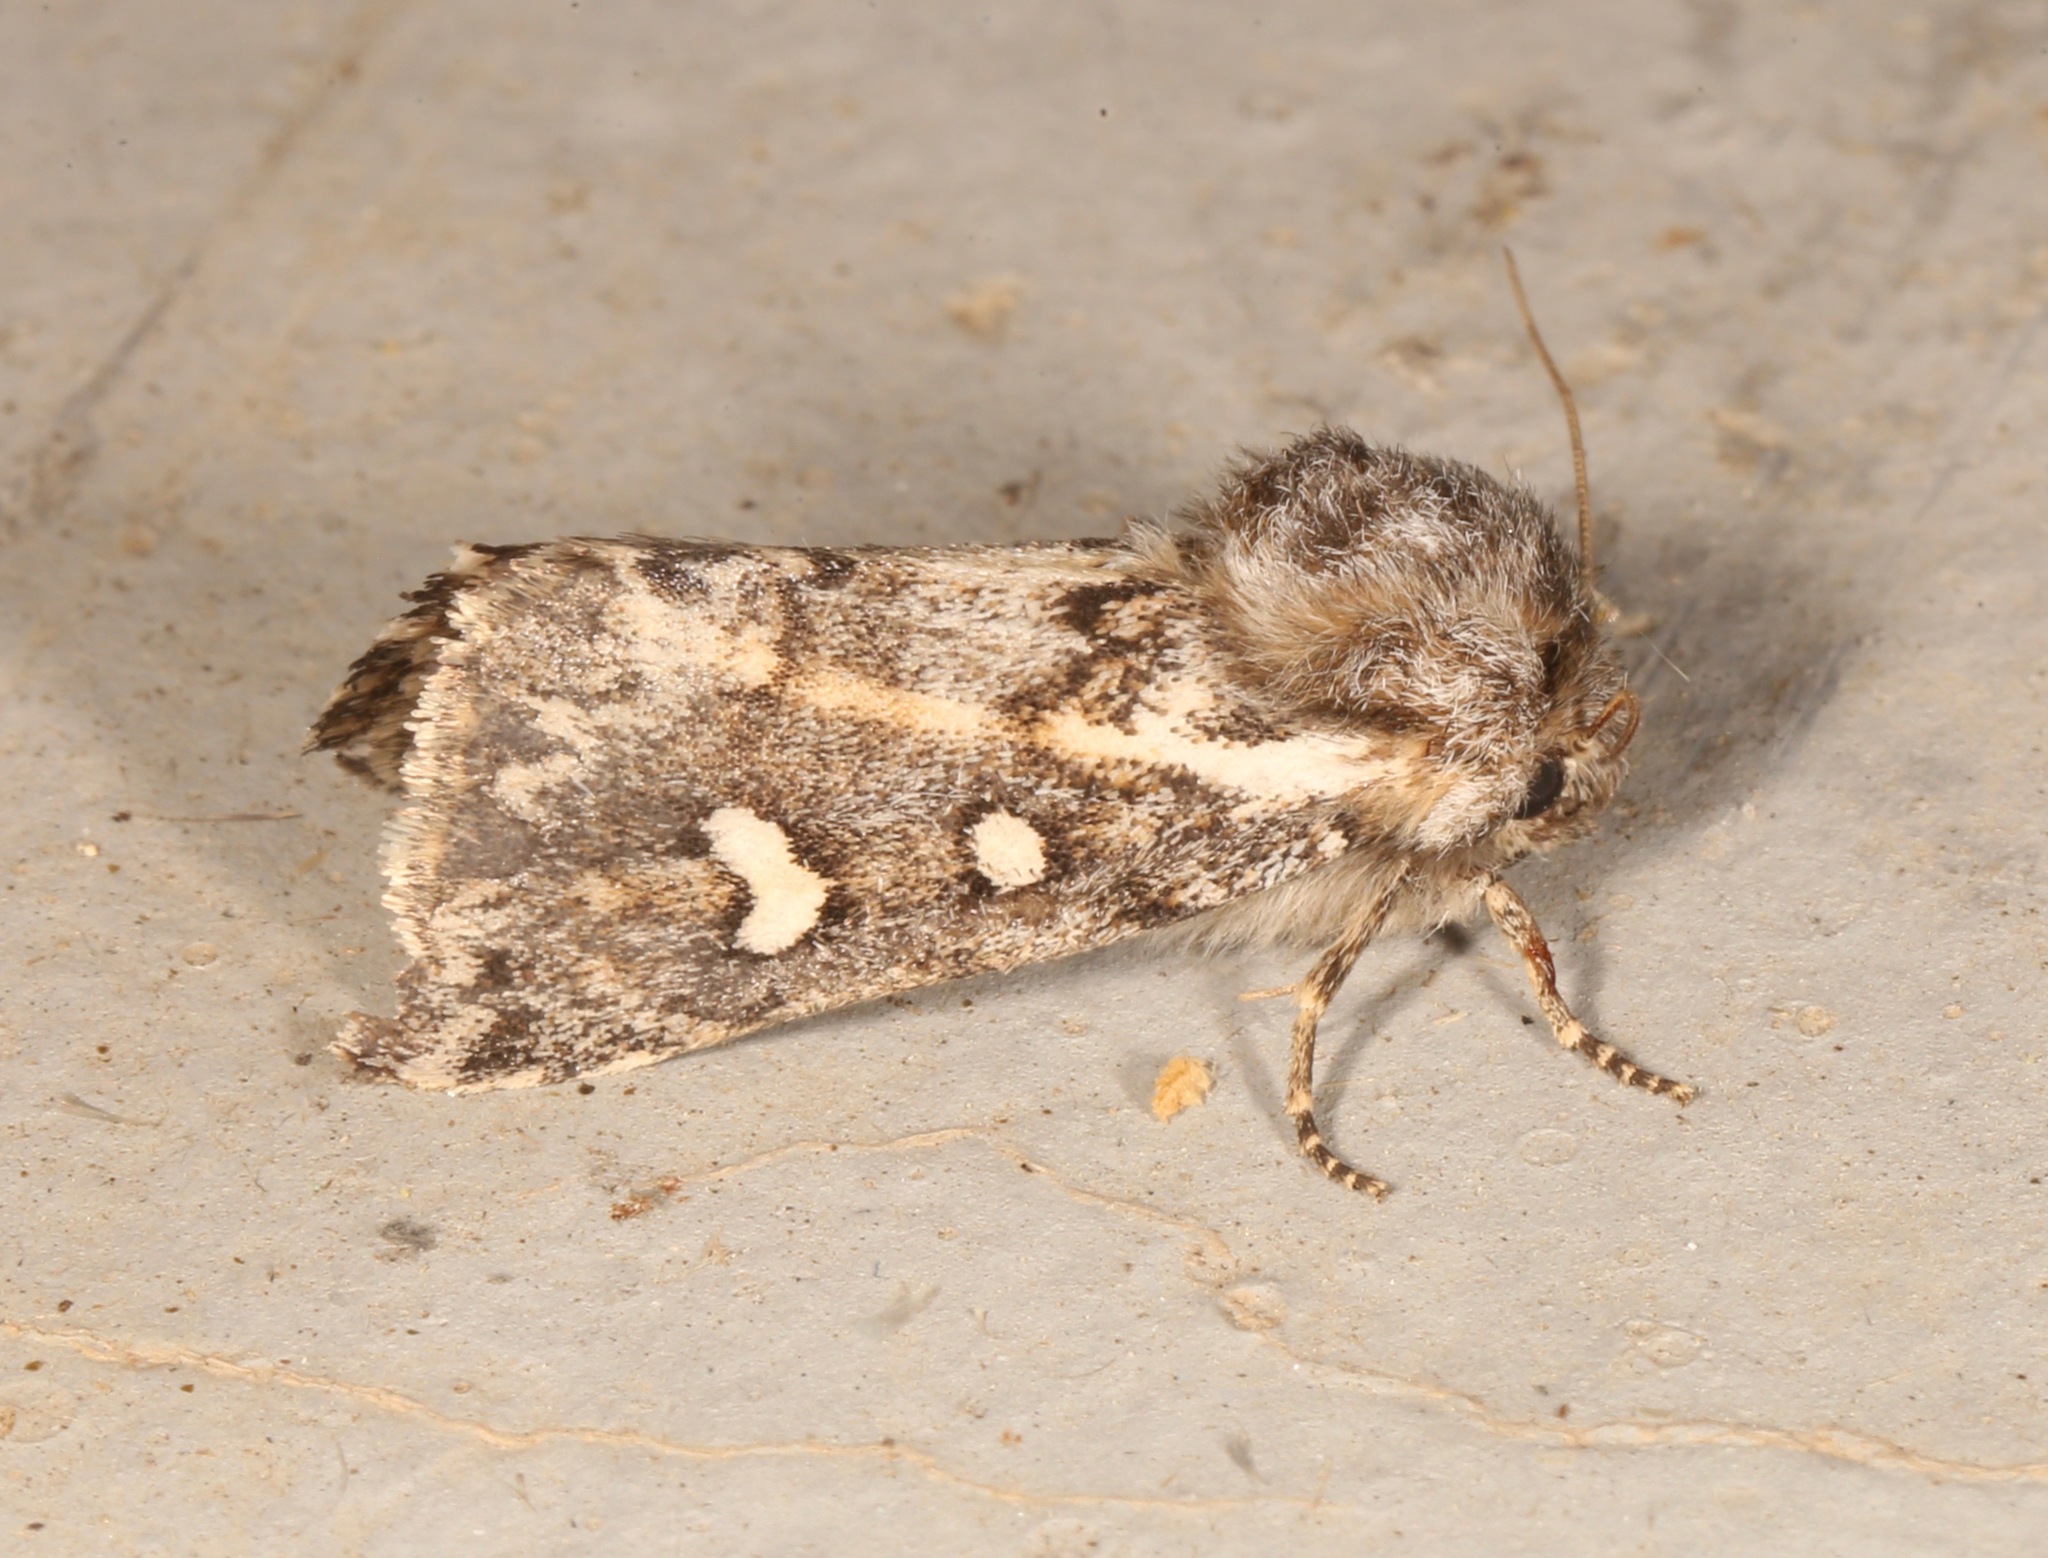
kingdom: Animalia
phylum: Arthropoda
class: Insecta
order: Lepidoptera
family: Noctuidae
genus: Grotellaforma
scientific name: Grotellaforma lactea
